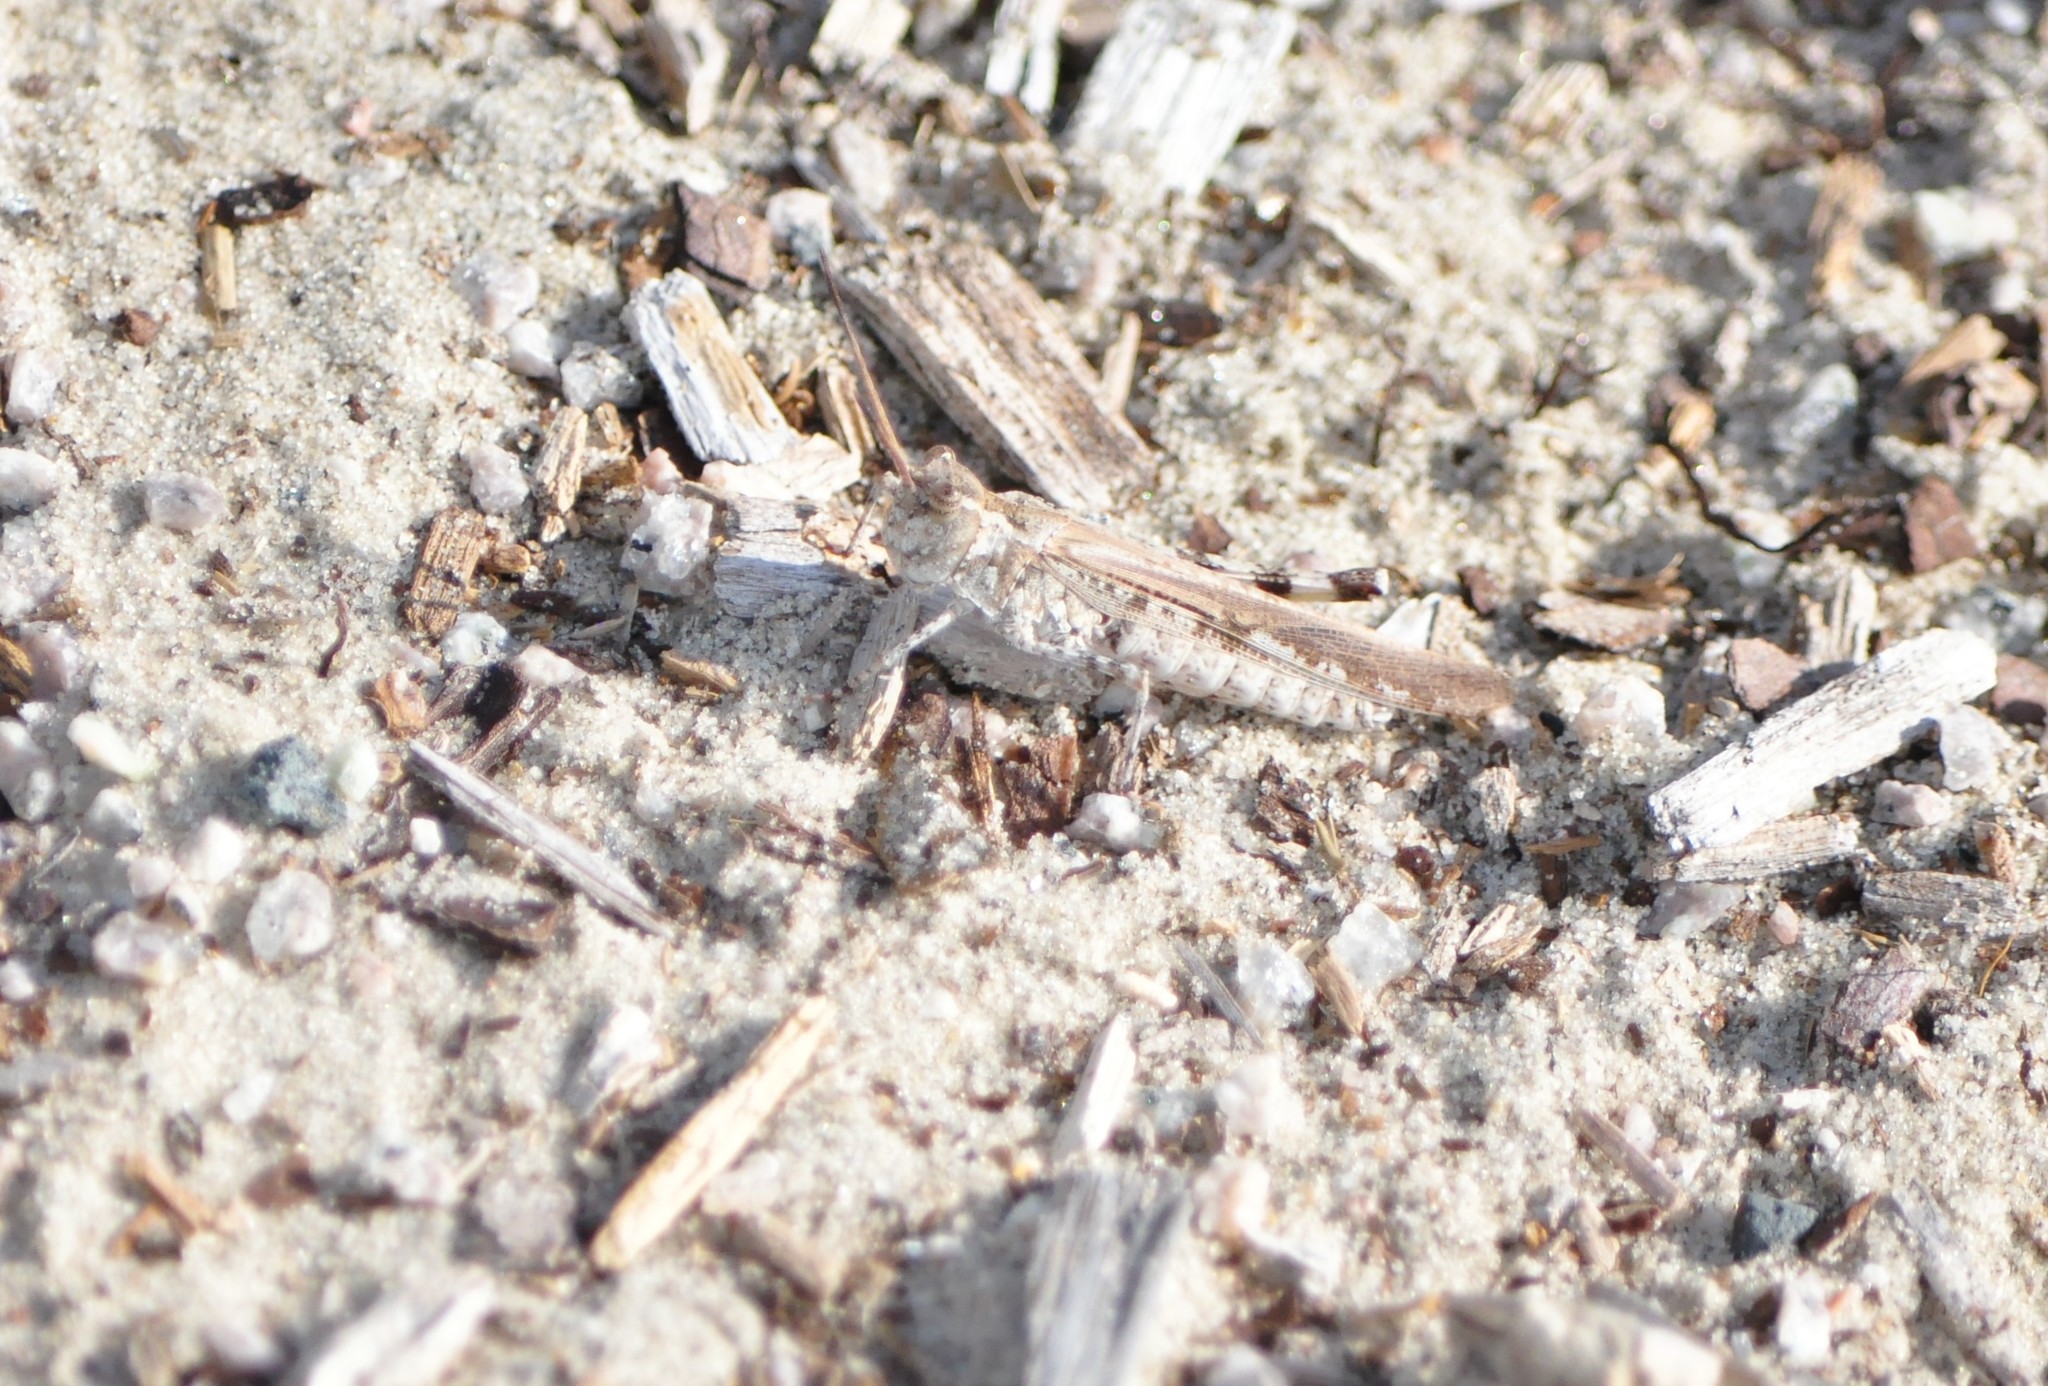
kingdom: Animalia
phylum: Arthropoda
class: Insecta
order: Orthoptera
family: Acrididae
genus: Trimerotropis
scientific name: Trimerotropis maritima
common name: Seaside locust
